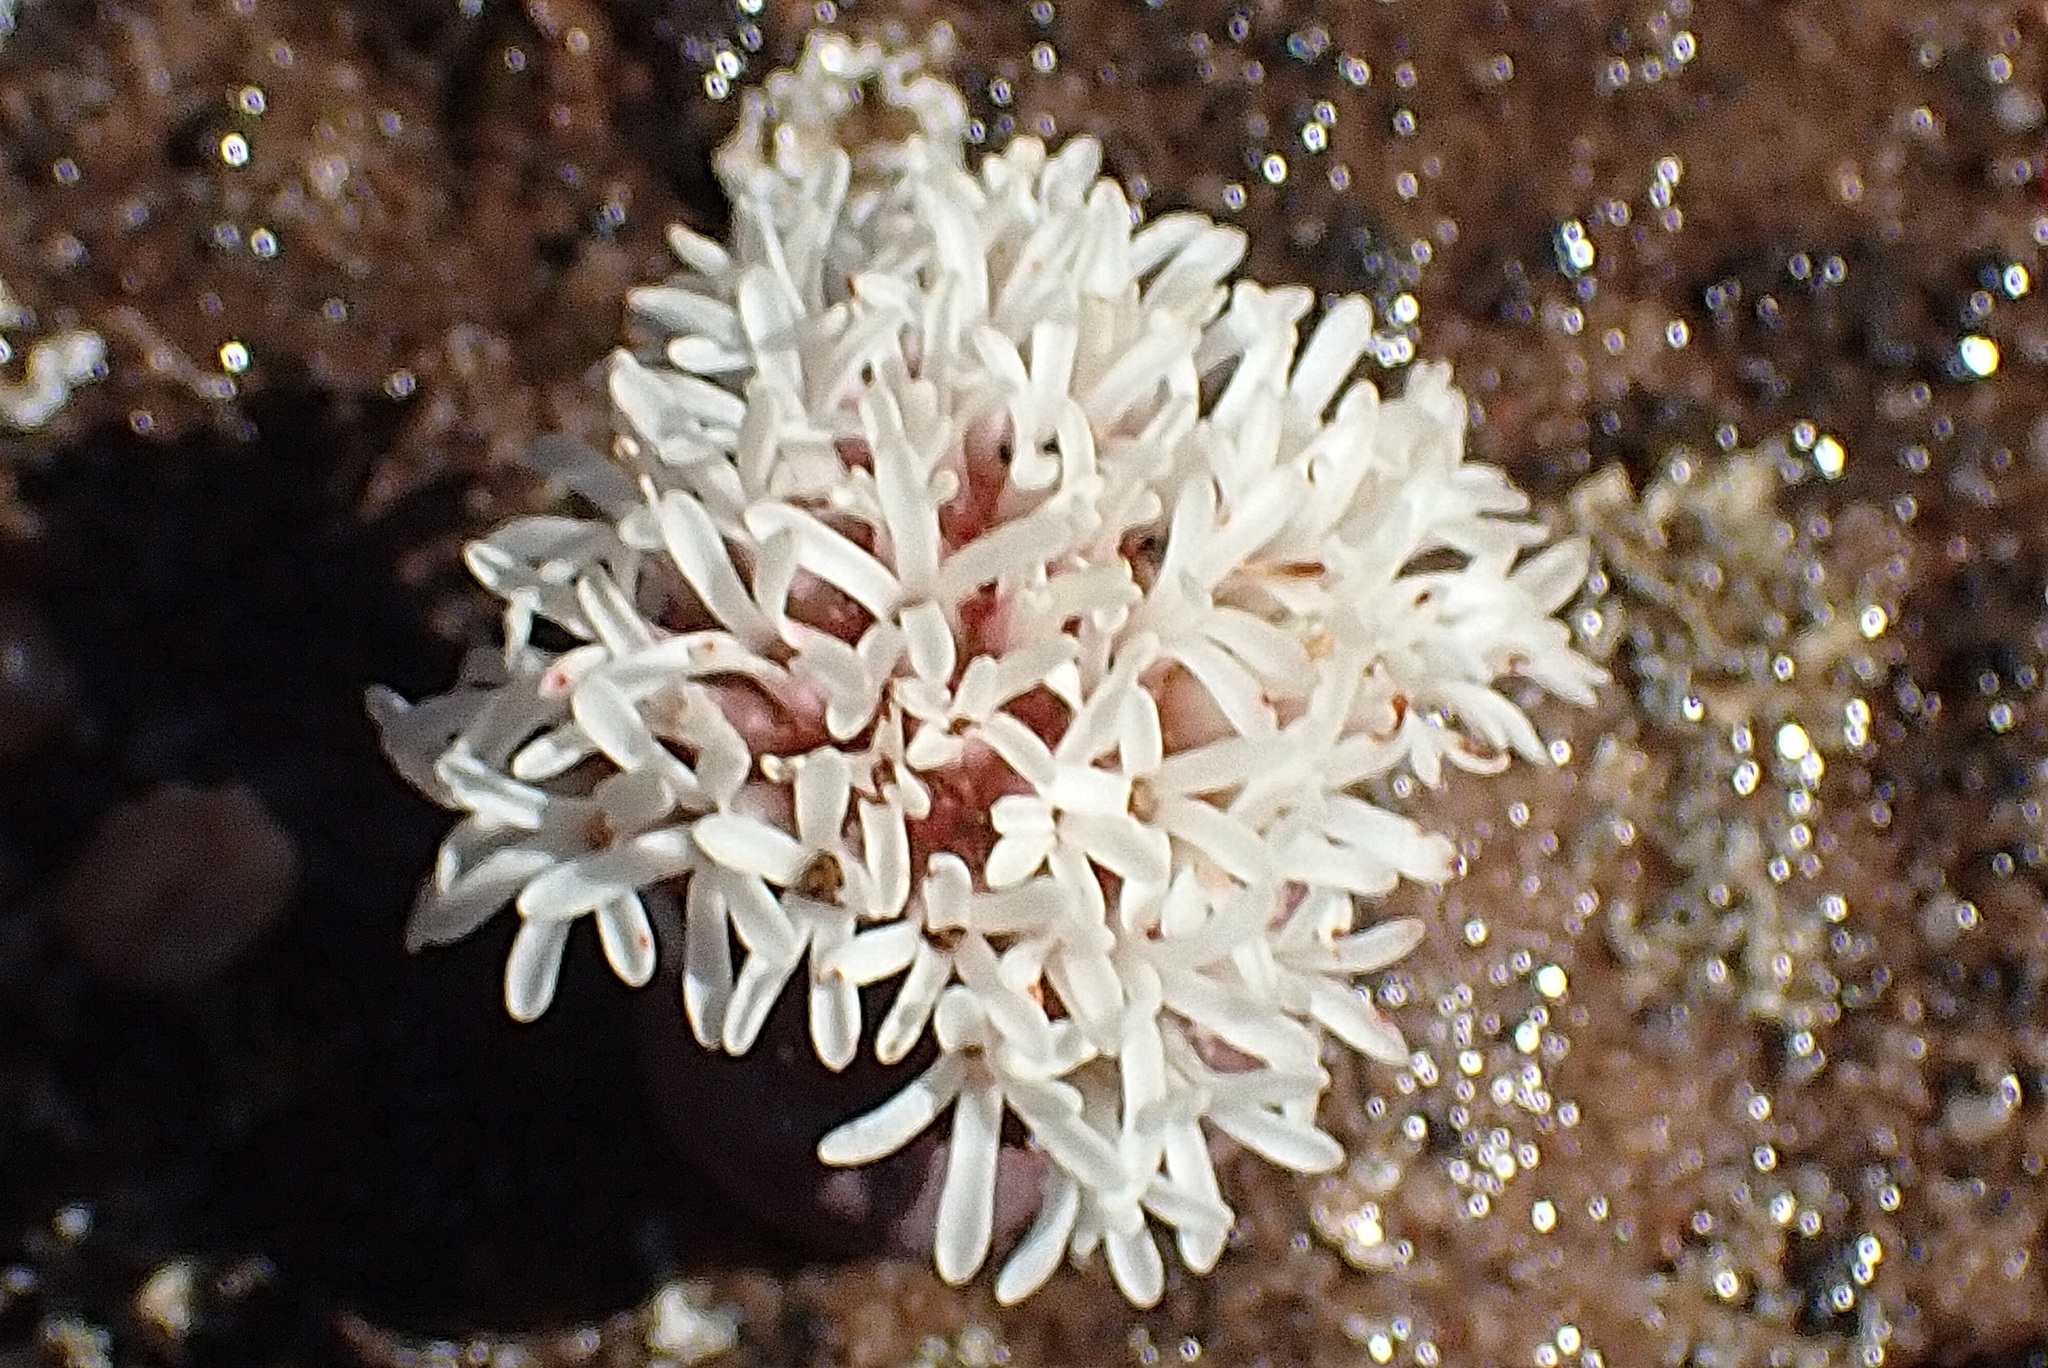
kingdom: Plantae
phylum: Tracheophyta
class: Magnoliopsida
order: Saxifragales
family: Crassulaceae
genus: Crassula
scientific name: Crassula columnaris
